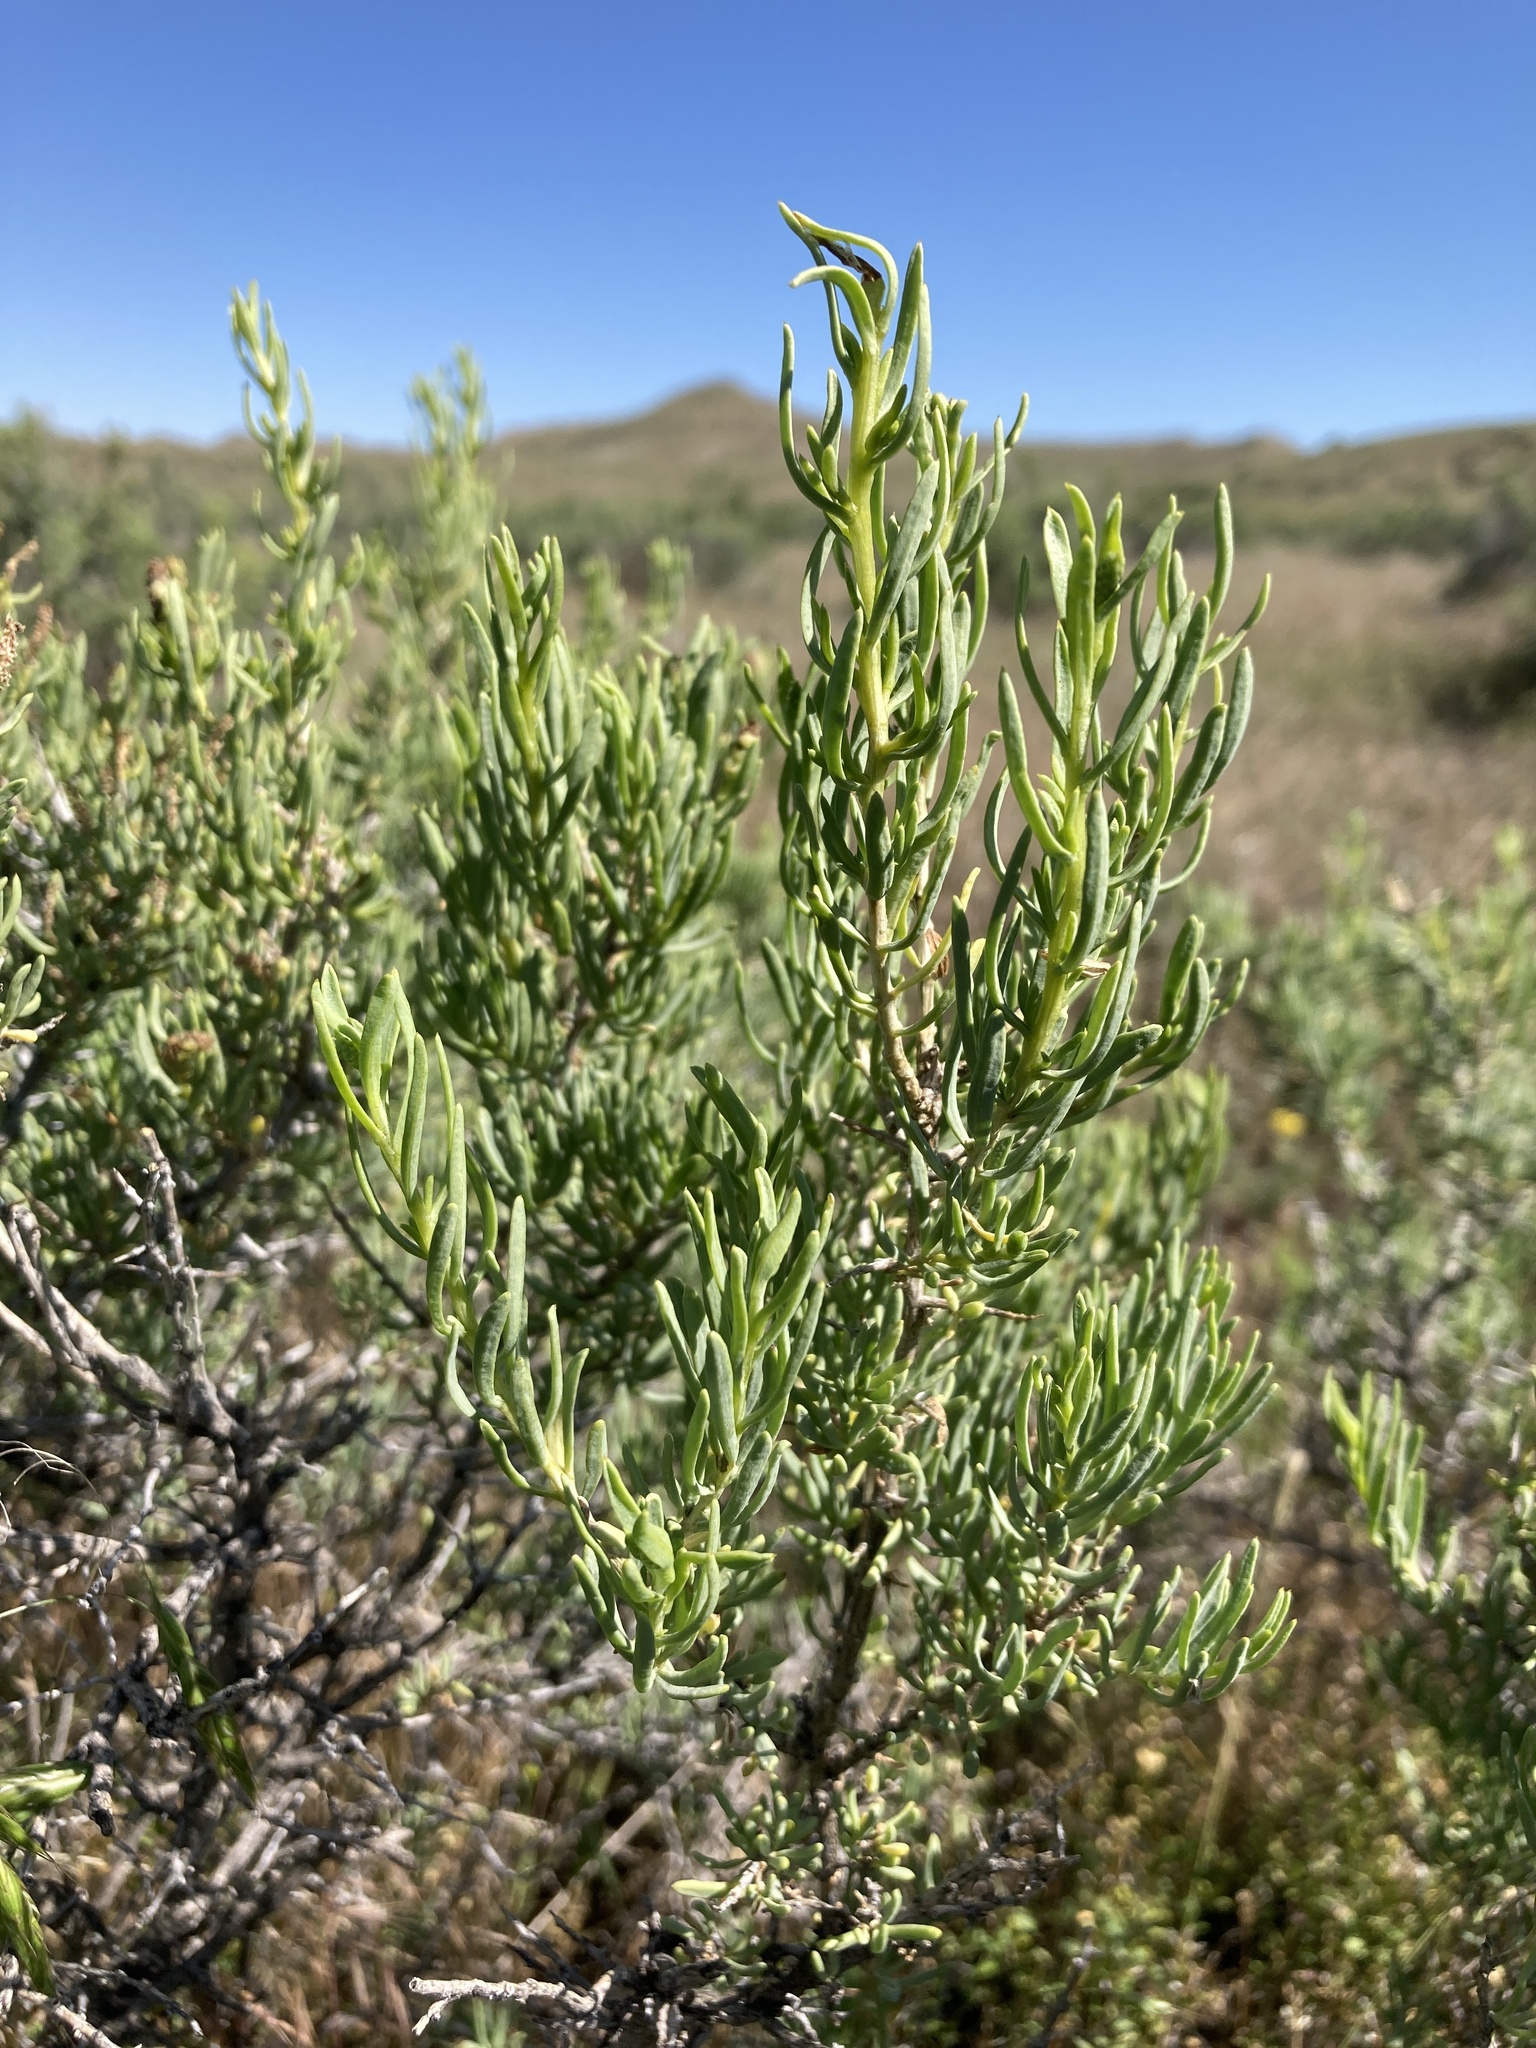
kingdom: Plantae
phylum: Tracheophyta
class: Magnoliopsida
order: Caryophyllales
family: Sarcobataceae
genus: Sarcobatus
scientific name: Sarcobatus vermiculatus
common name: Greasewood
